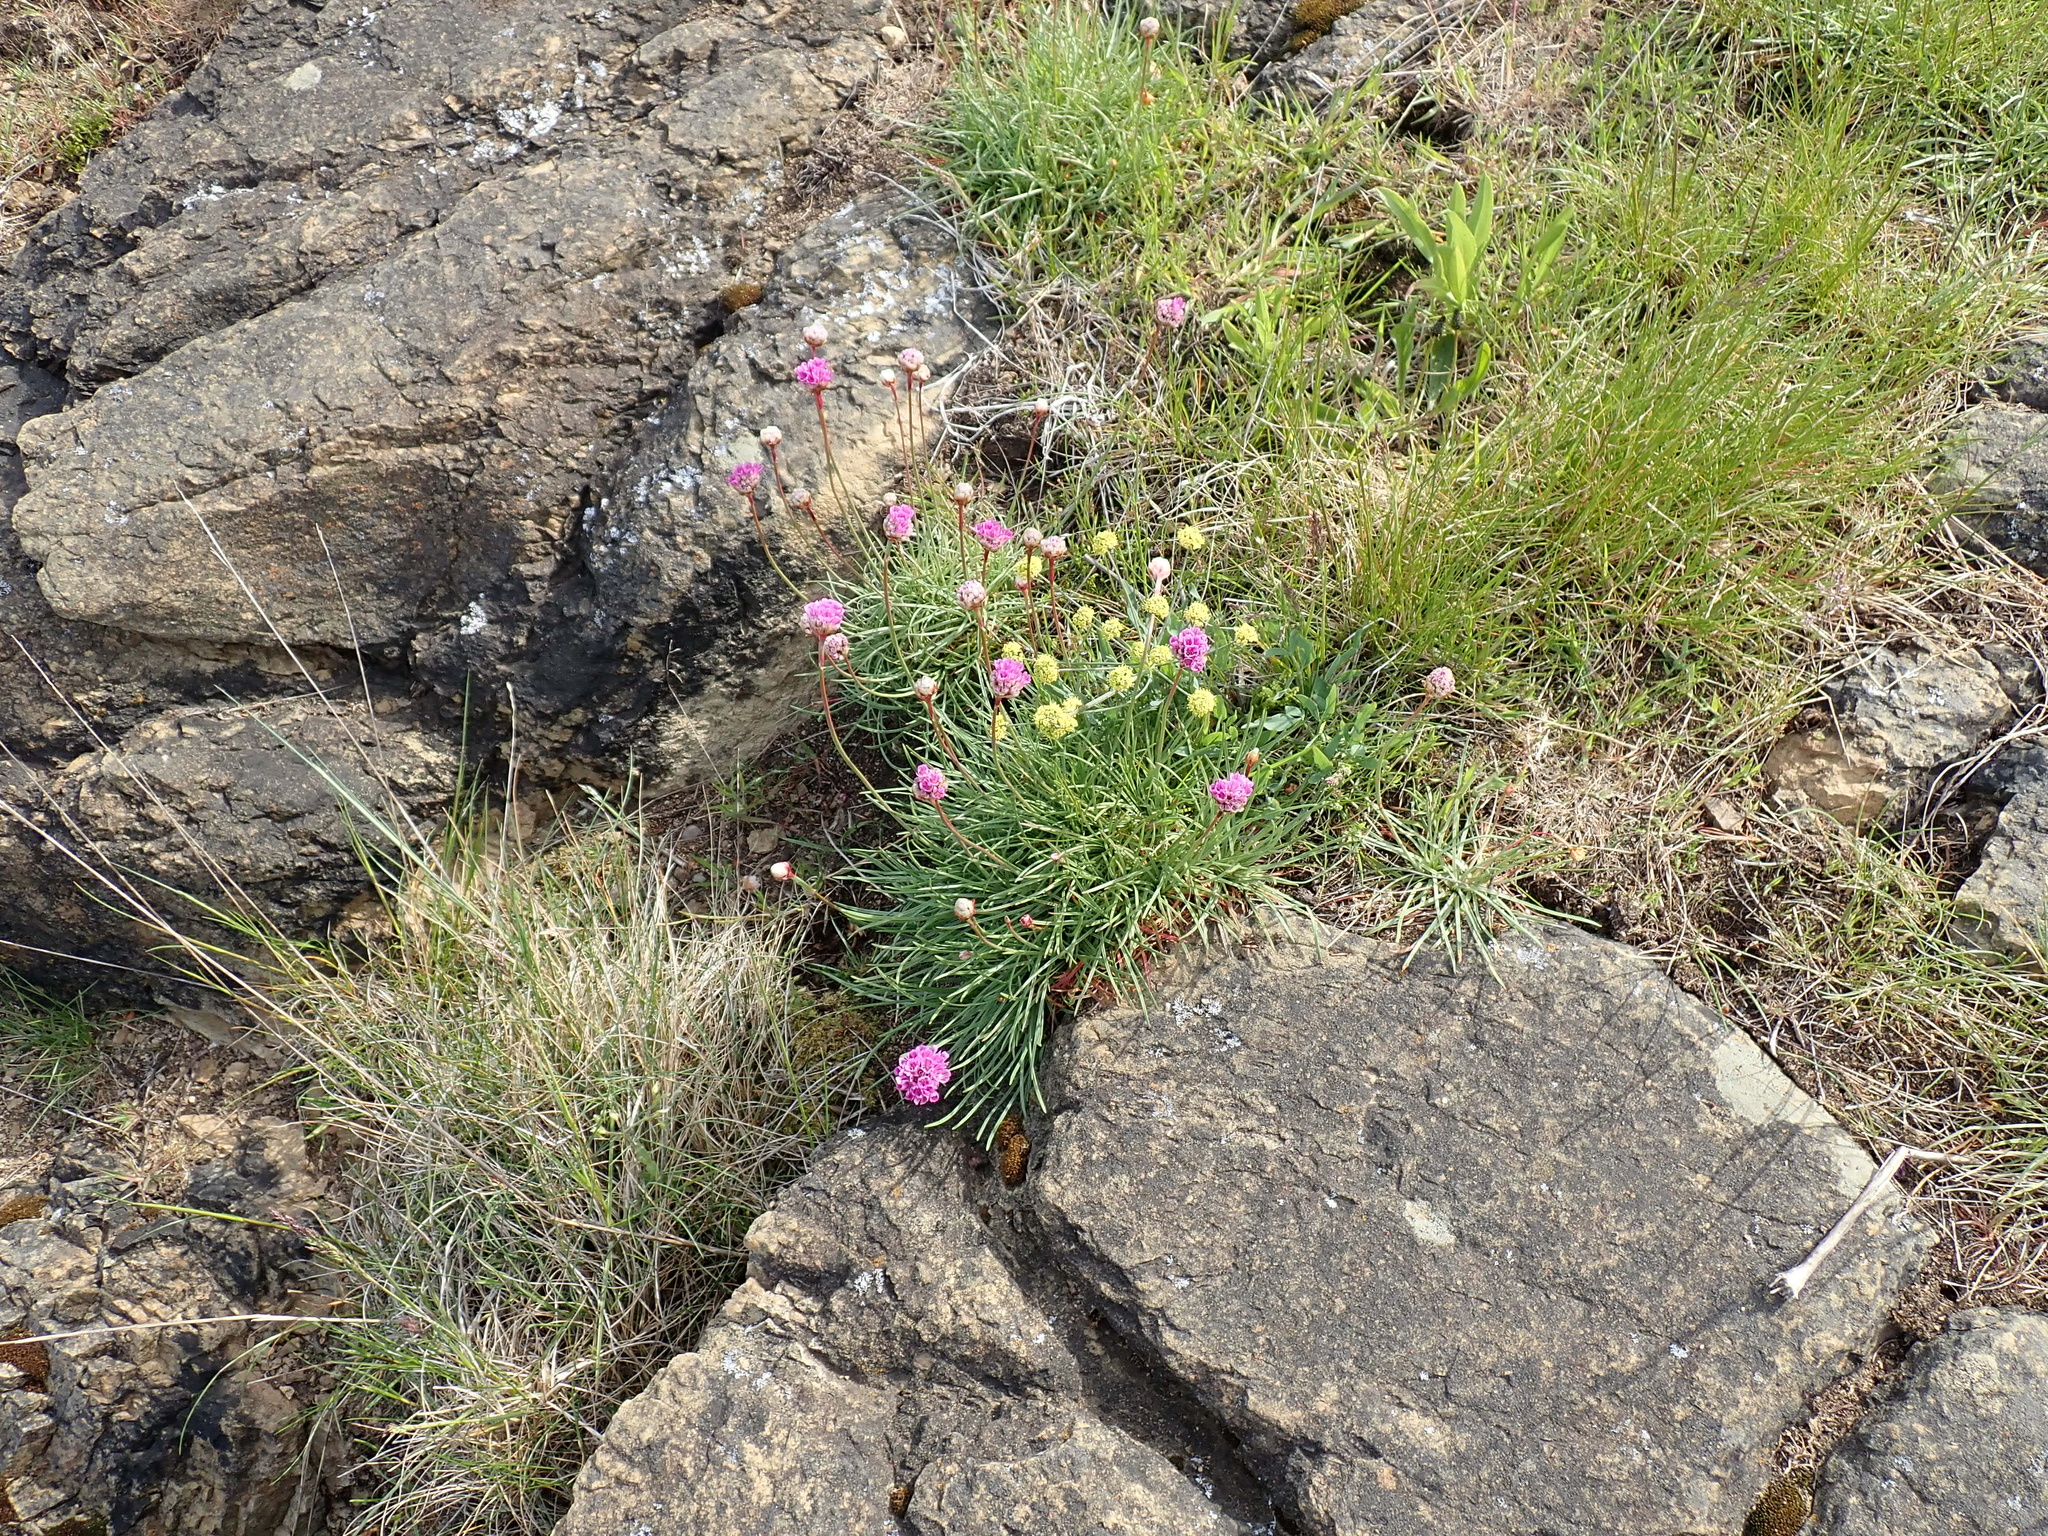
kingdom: Plantae
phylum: Tracheophyta
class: Magnoliopsida
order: Apiales
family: Apiaceae
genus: Lomatium
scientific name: Lomatium nudicaule
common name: Pestle lomatium
